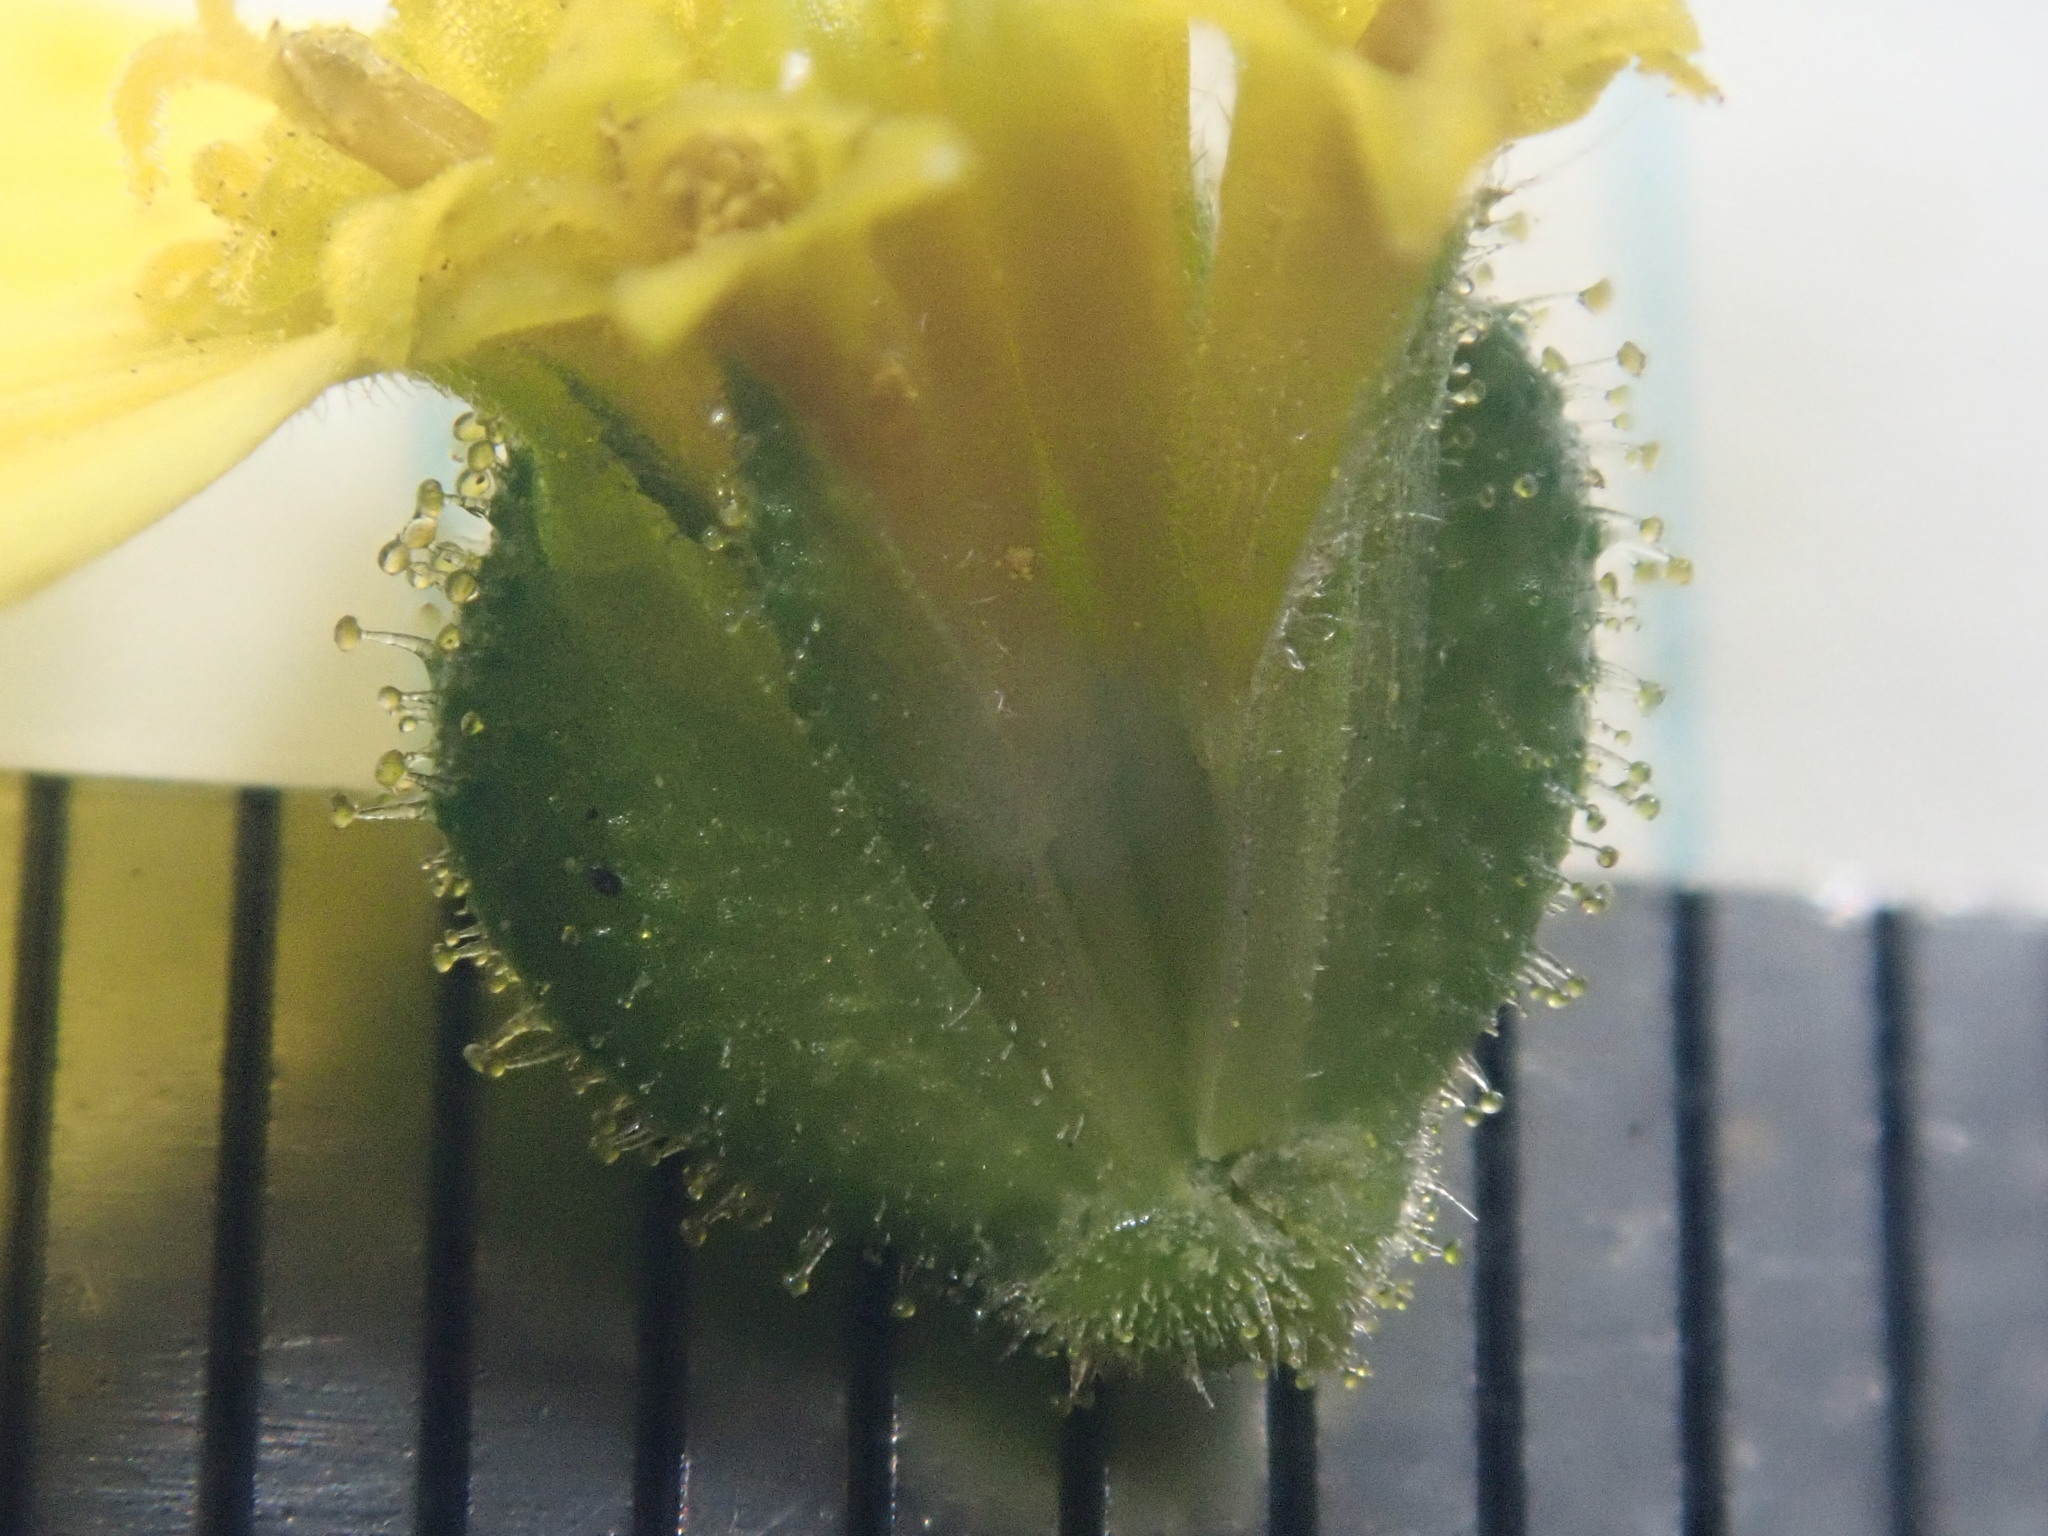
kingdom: Plantae
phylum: Tracheophyta
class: Magnoliopsida
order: Asterales
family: Asteraceae
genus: Anisocarpus
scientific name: Anisocarpus madioides
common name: Woodland madia
